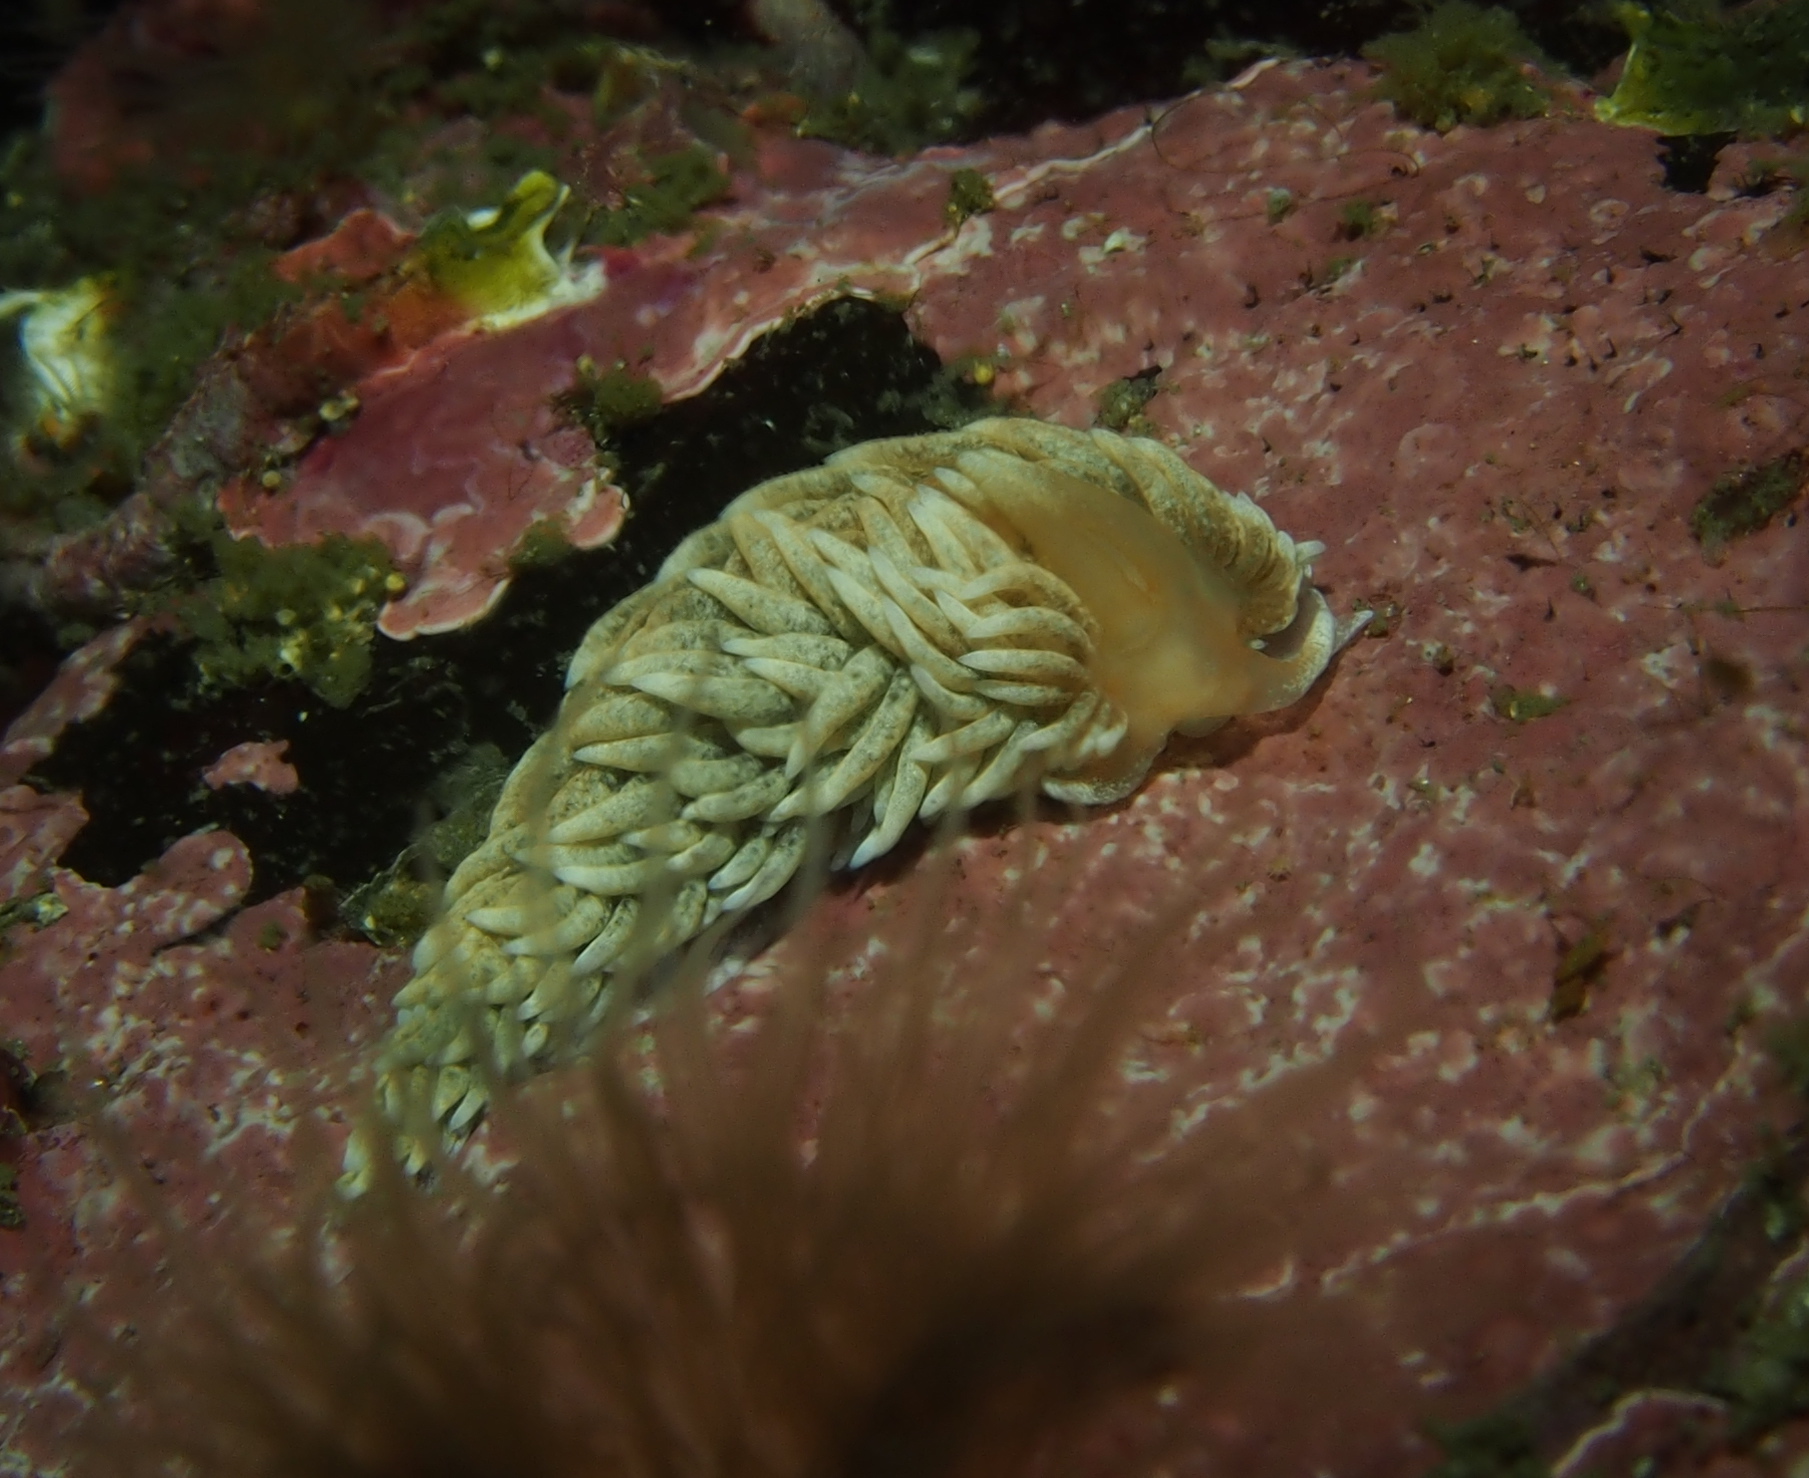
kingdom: Animalia
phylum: Mollusca
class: Gastropoda
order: Nudibranchia
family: Aeolidiidae
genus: Aeolidiella
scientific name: Aeolidiella glauca
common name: Orange-brown aeolid
